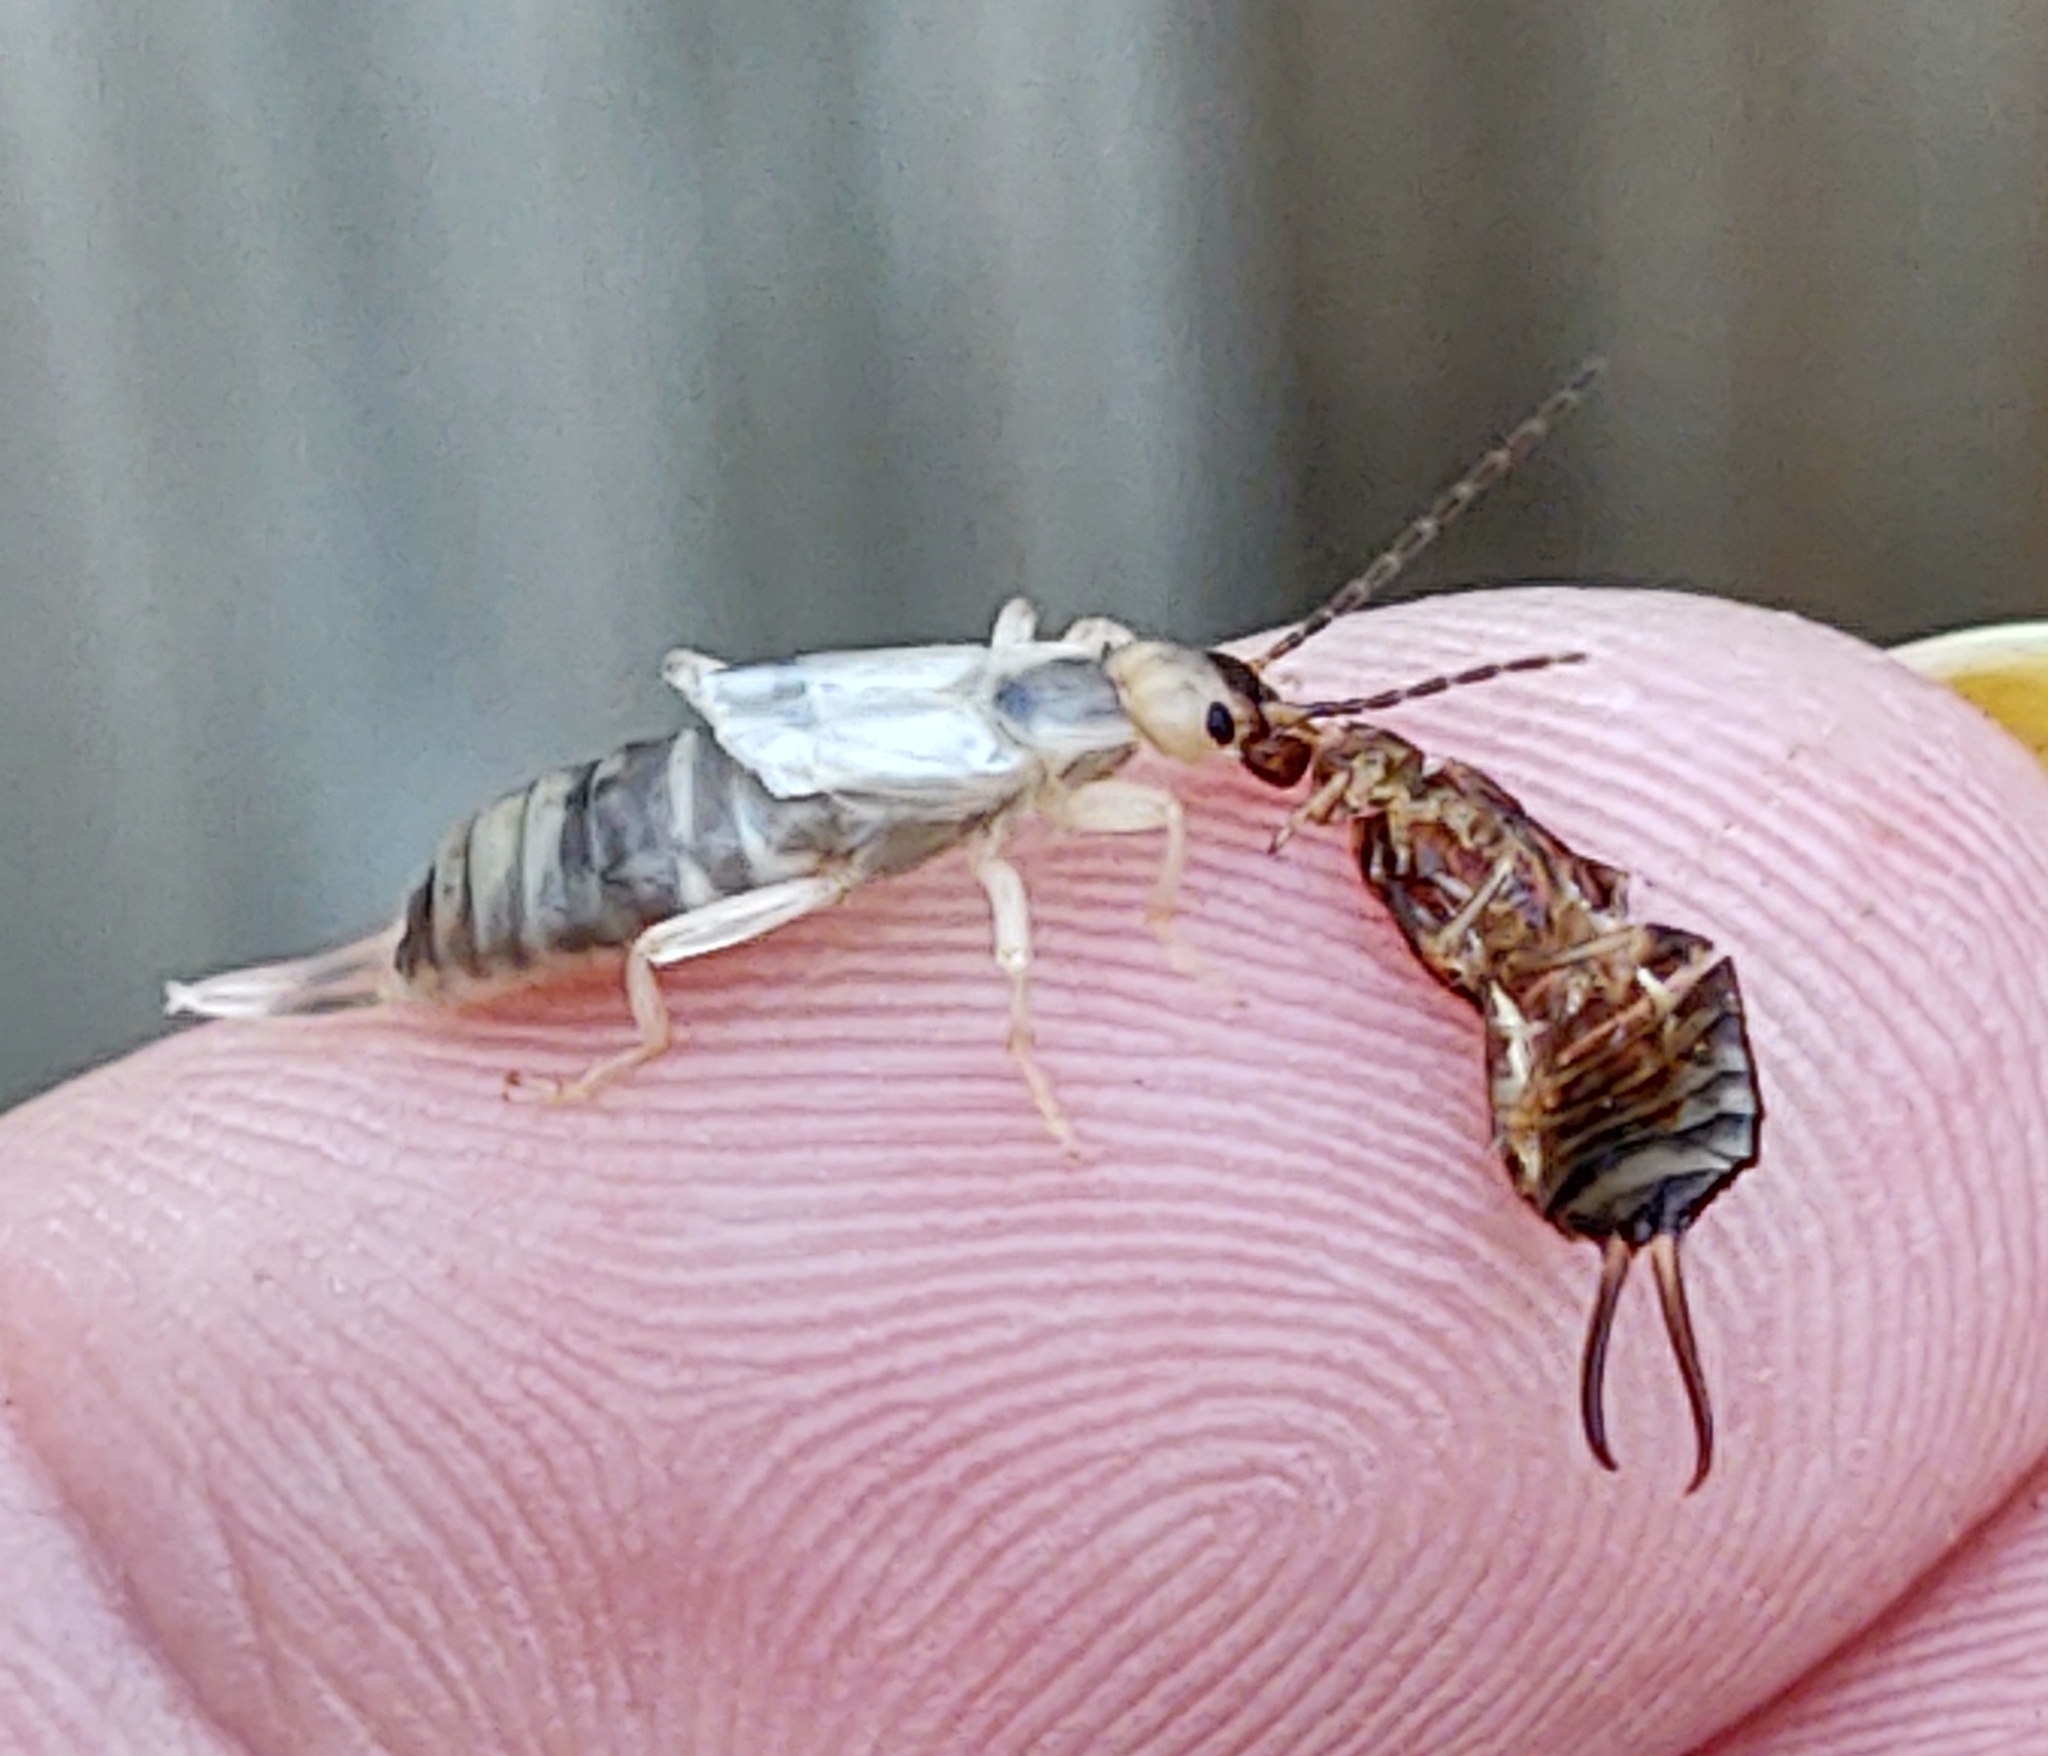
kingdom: Animalia
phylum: Arthropoda
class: Insecta
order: Dermaptera
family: Forficulidae
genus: Forficula
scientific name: Forficula
